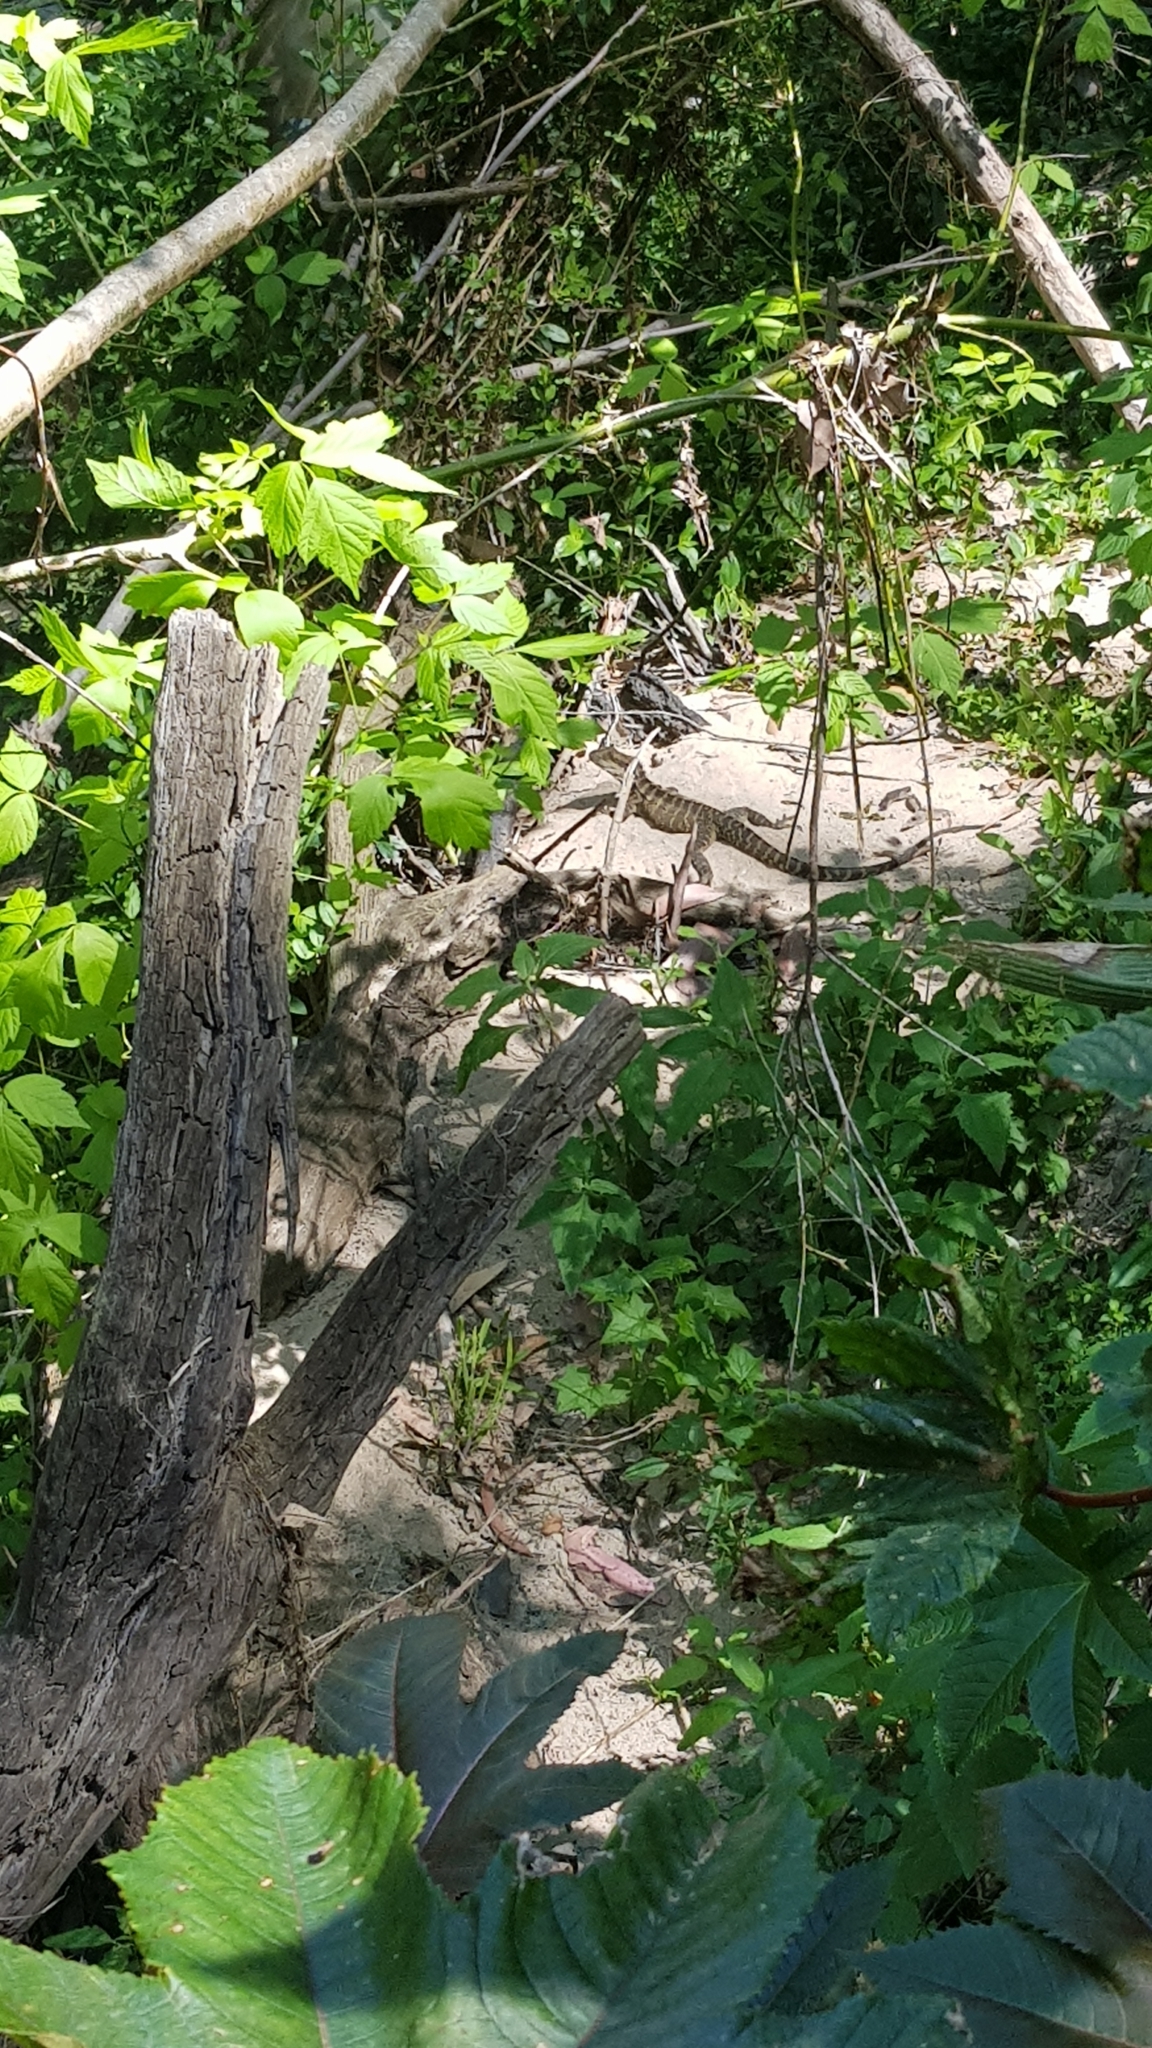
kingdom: Animalia
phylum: Chordata
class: Squamata
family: Agamidae
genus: Intellagama
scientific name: Intellagama lesueurii
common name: Eastern water dragon
